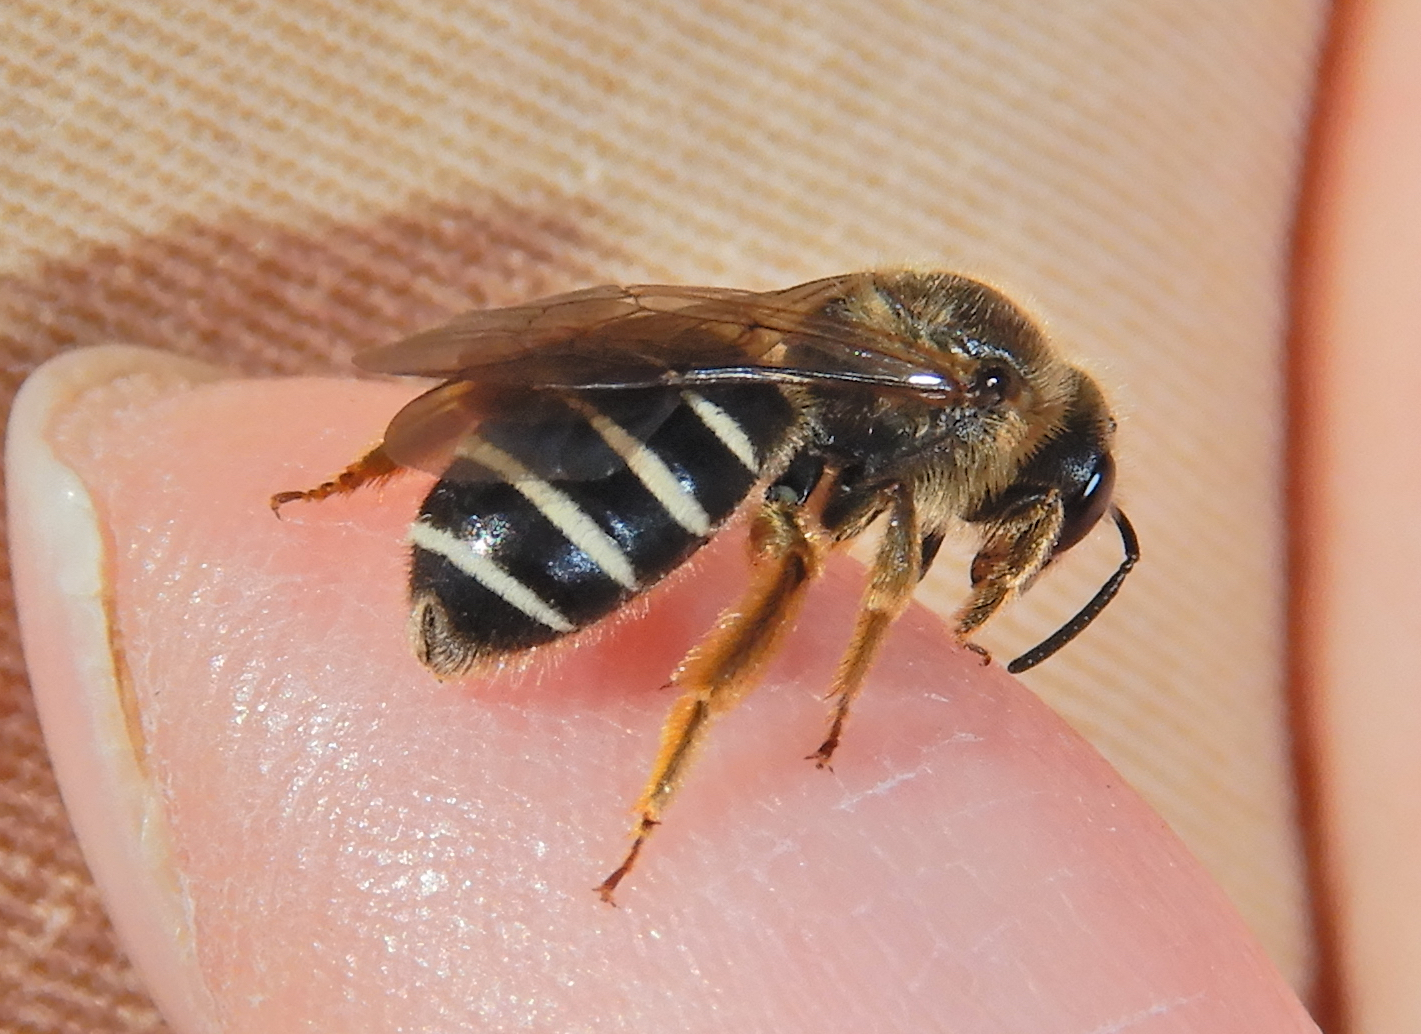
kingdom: Animalia
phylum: Arthropoda
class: Insecta
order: Hymenoptera
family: Halictidae
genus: Halictus
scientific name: Halictus rubicundus
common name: Orange-legged furrow bee
